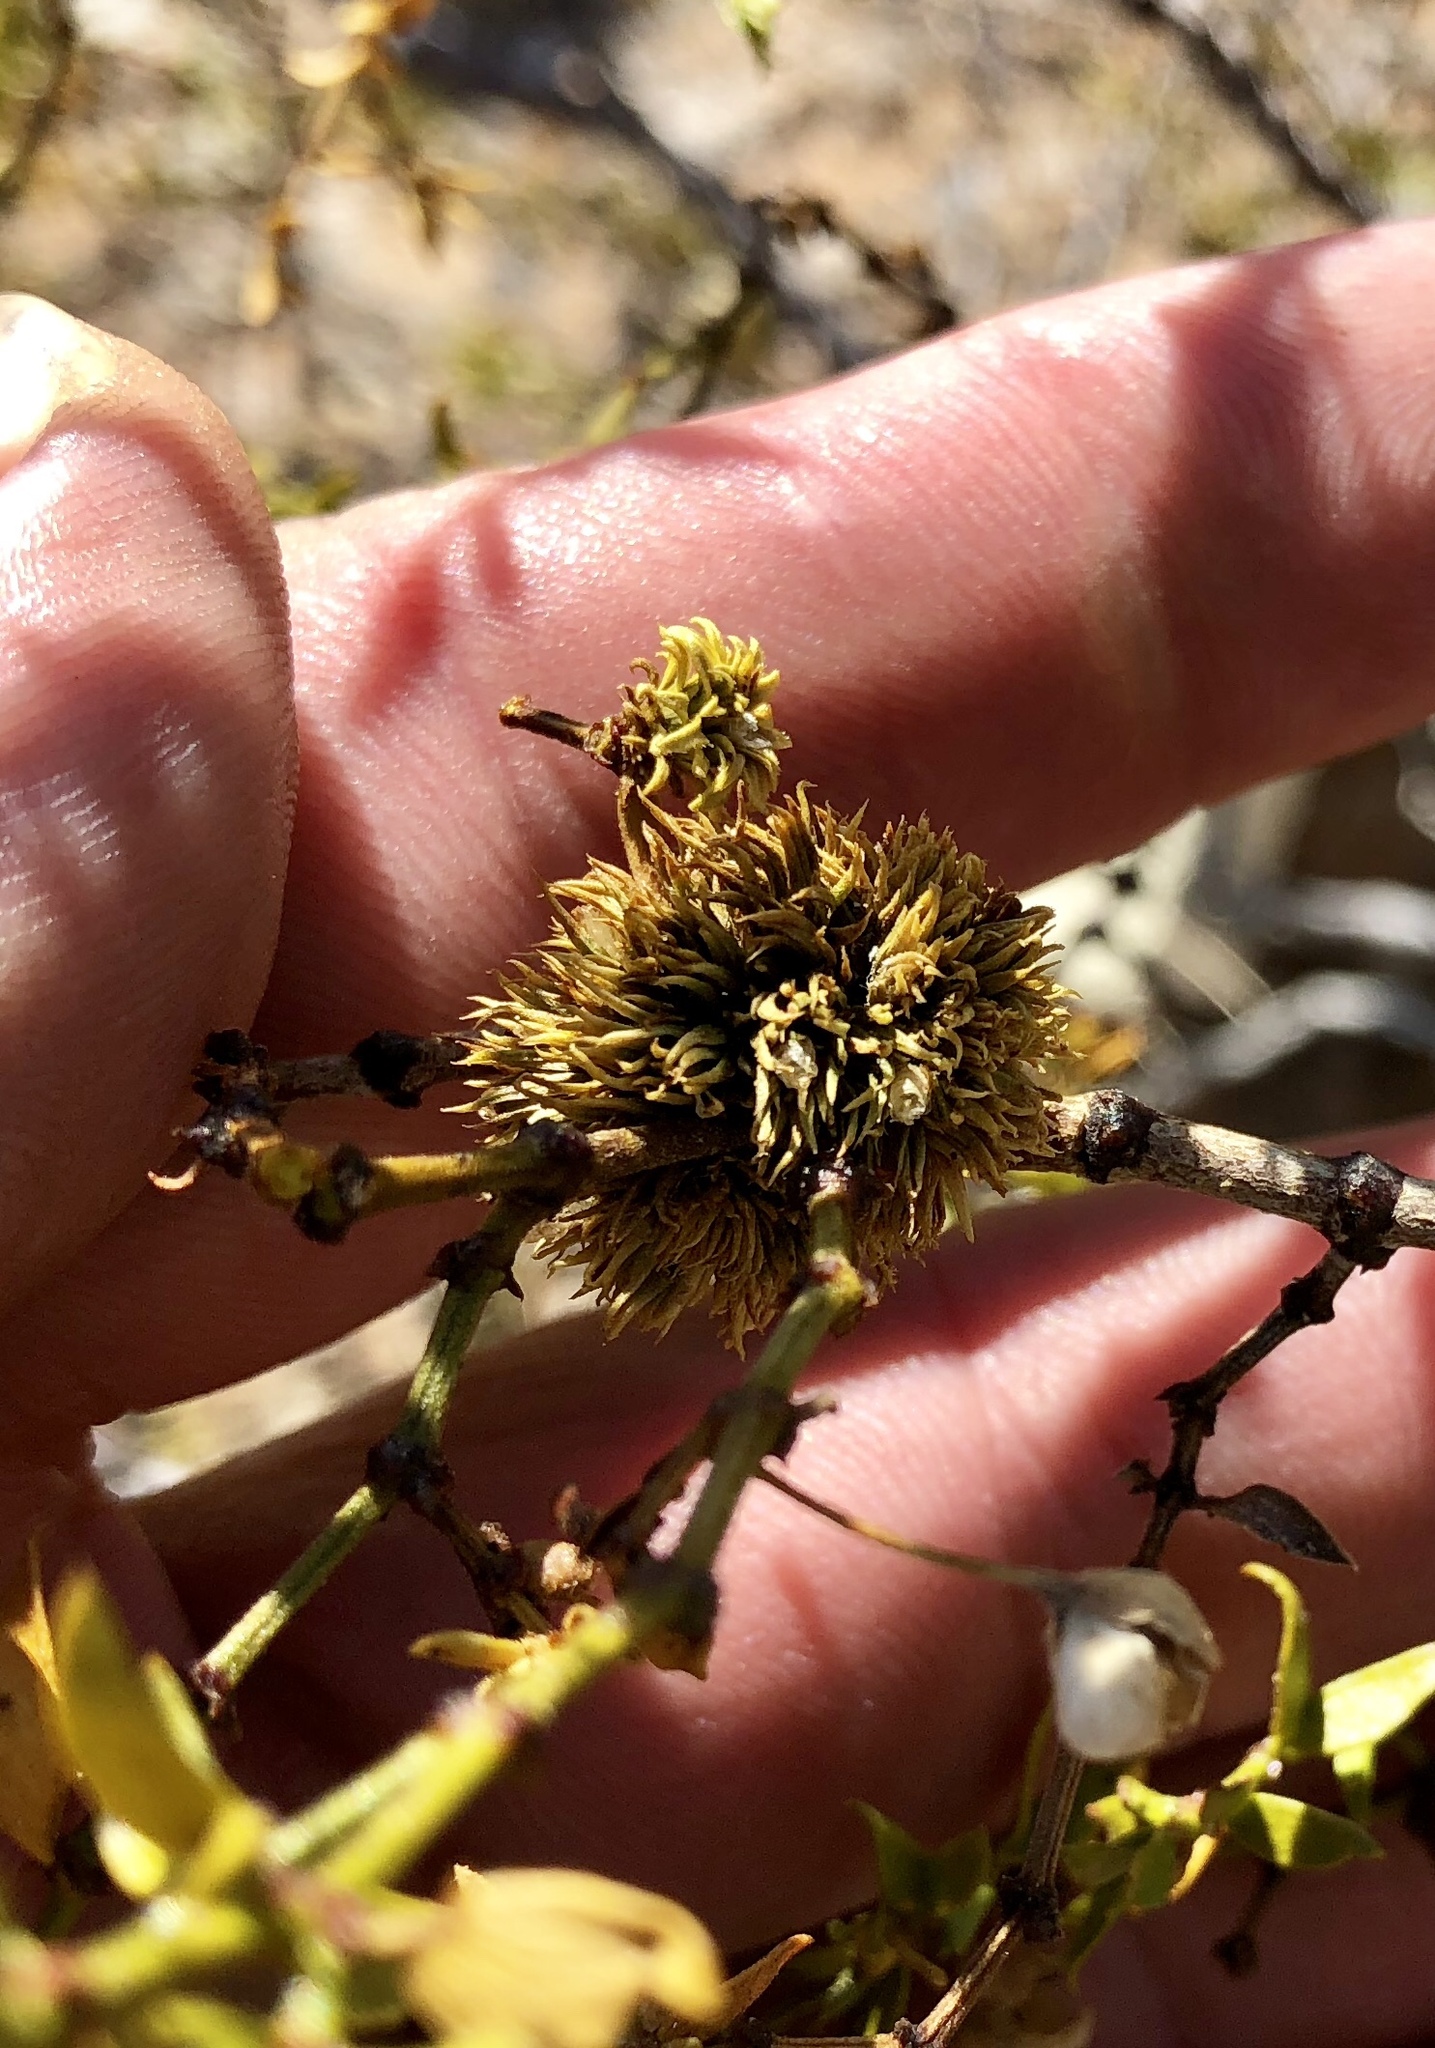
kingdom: Animalia
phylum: Arthropoda
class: Insecta
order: Diptera
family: Cecidomyiidae
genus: Asphondylia
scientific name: Asphondylia auripila
